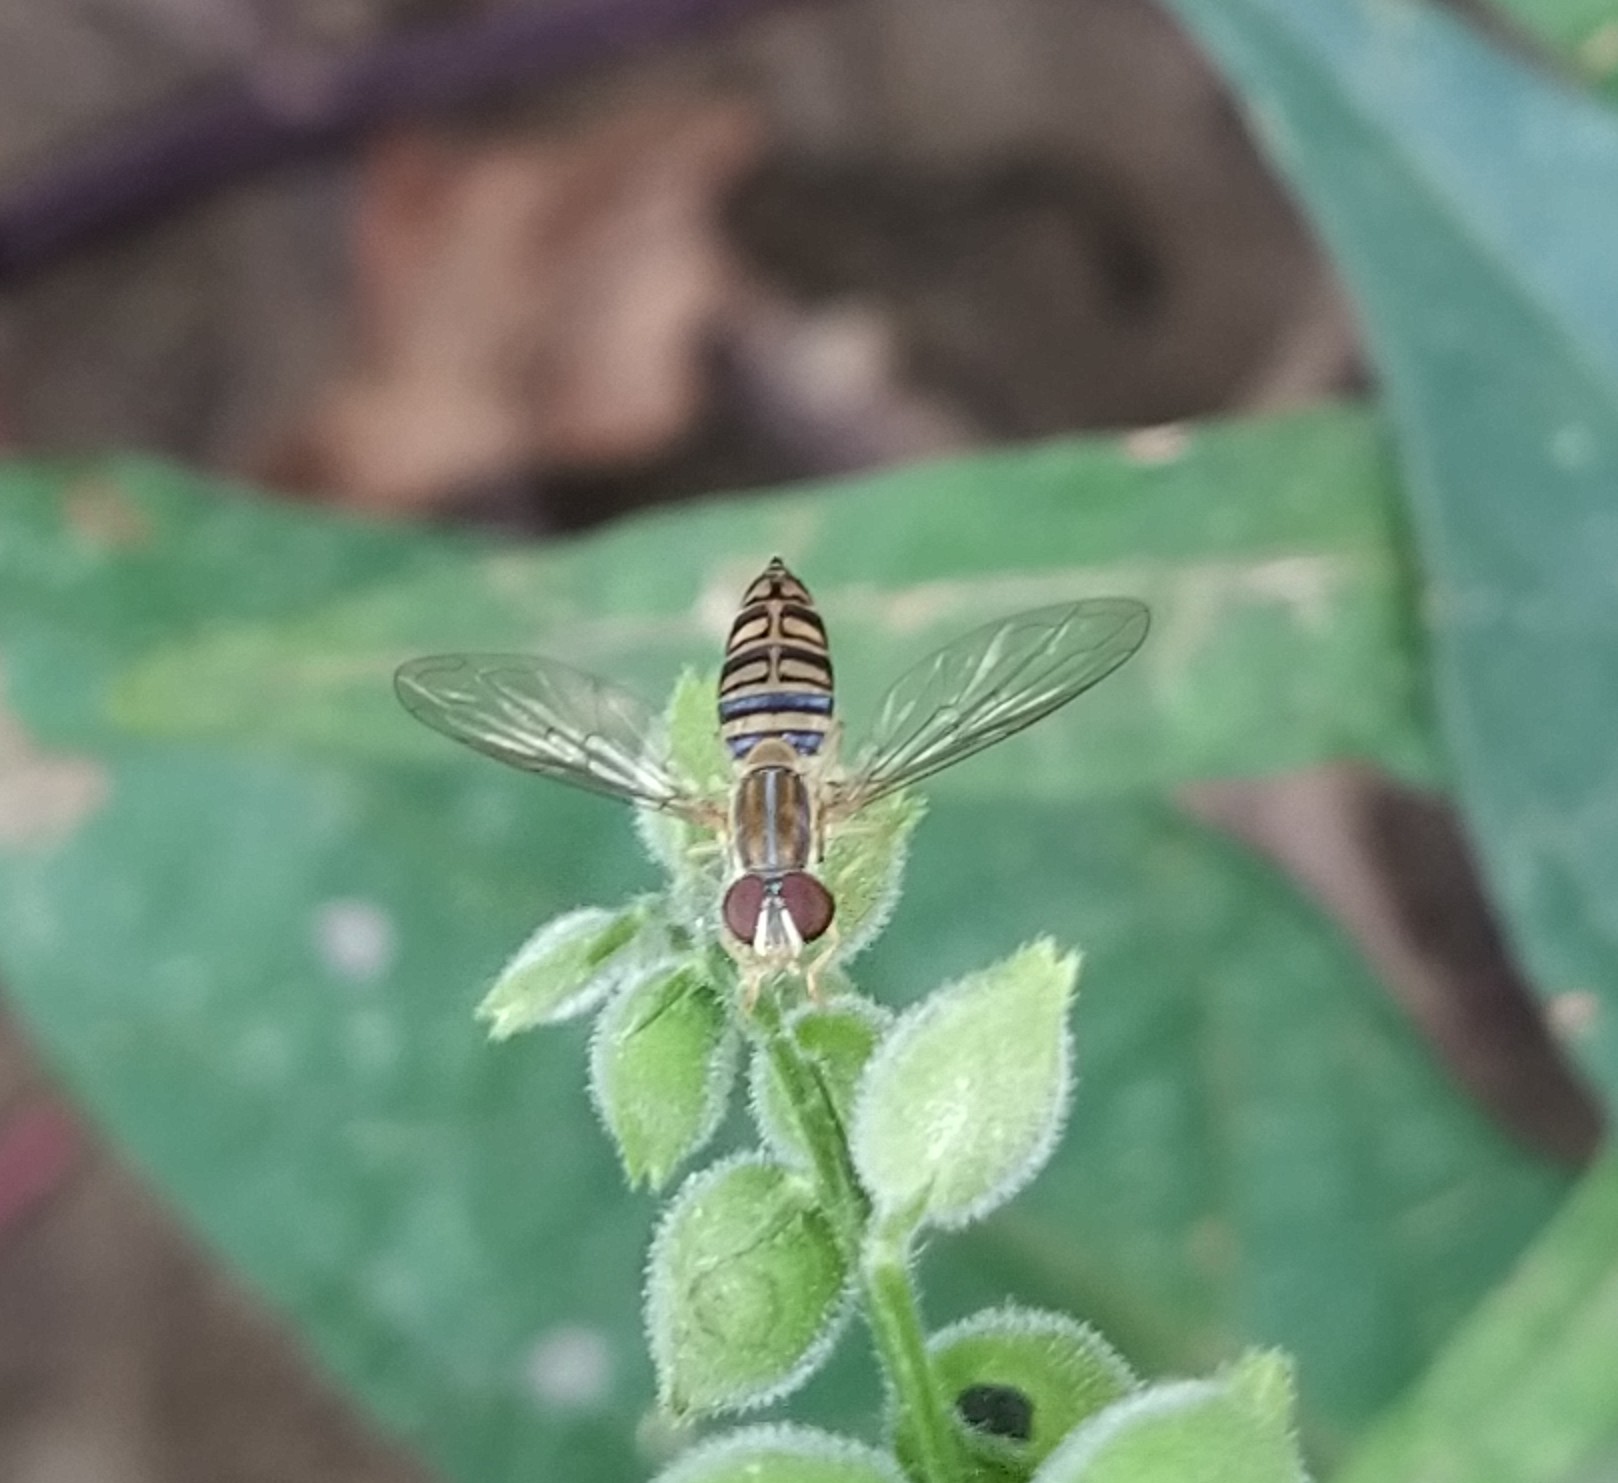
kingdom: Animalia
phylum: Arthropoda
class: Insecta
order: Diptera
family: Syrphidae
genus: Toxomerus
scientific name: Toxomerus politus
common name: Maize calligrapher
